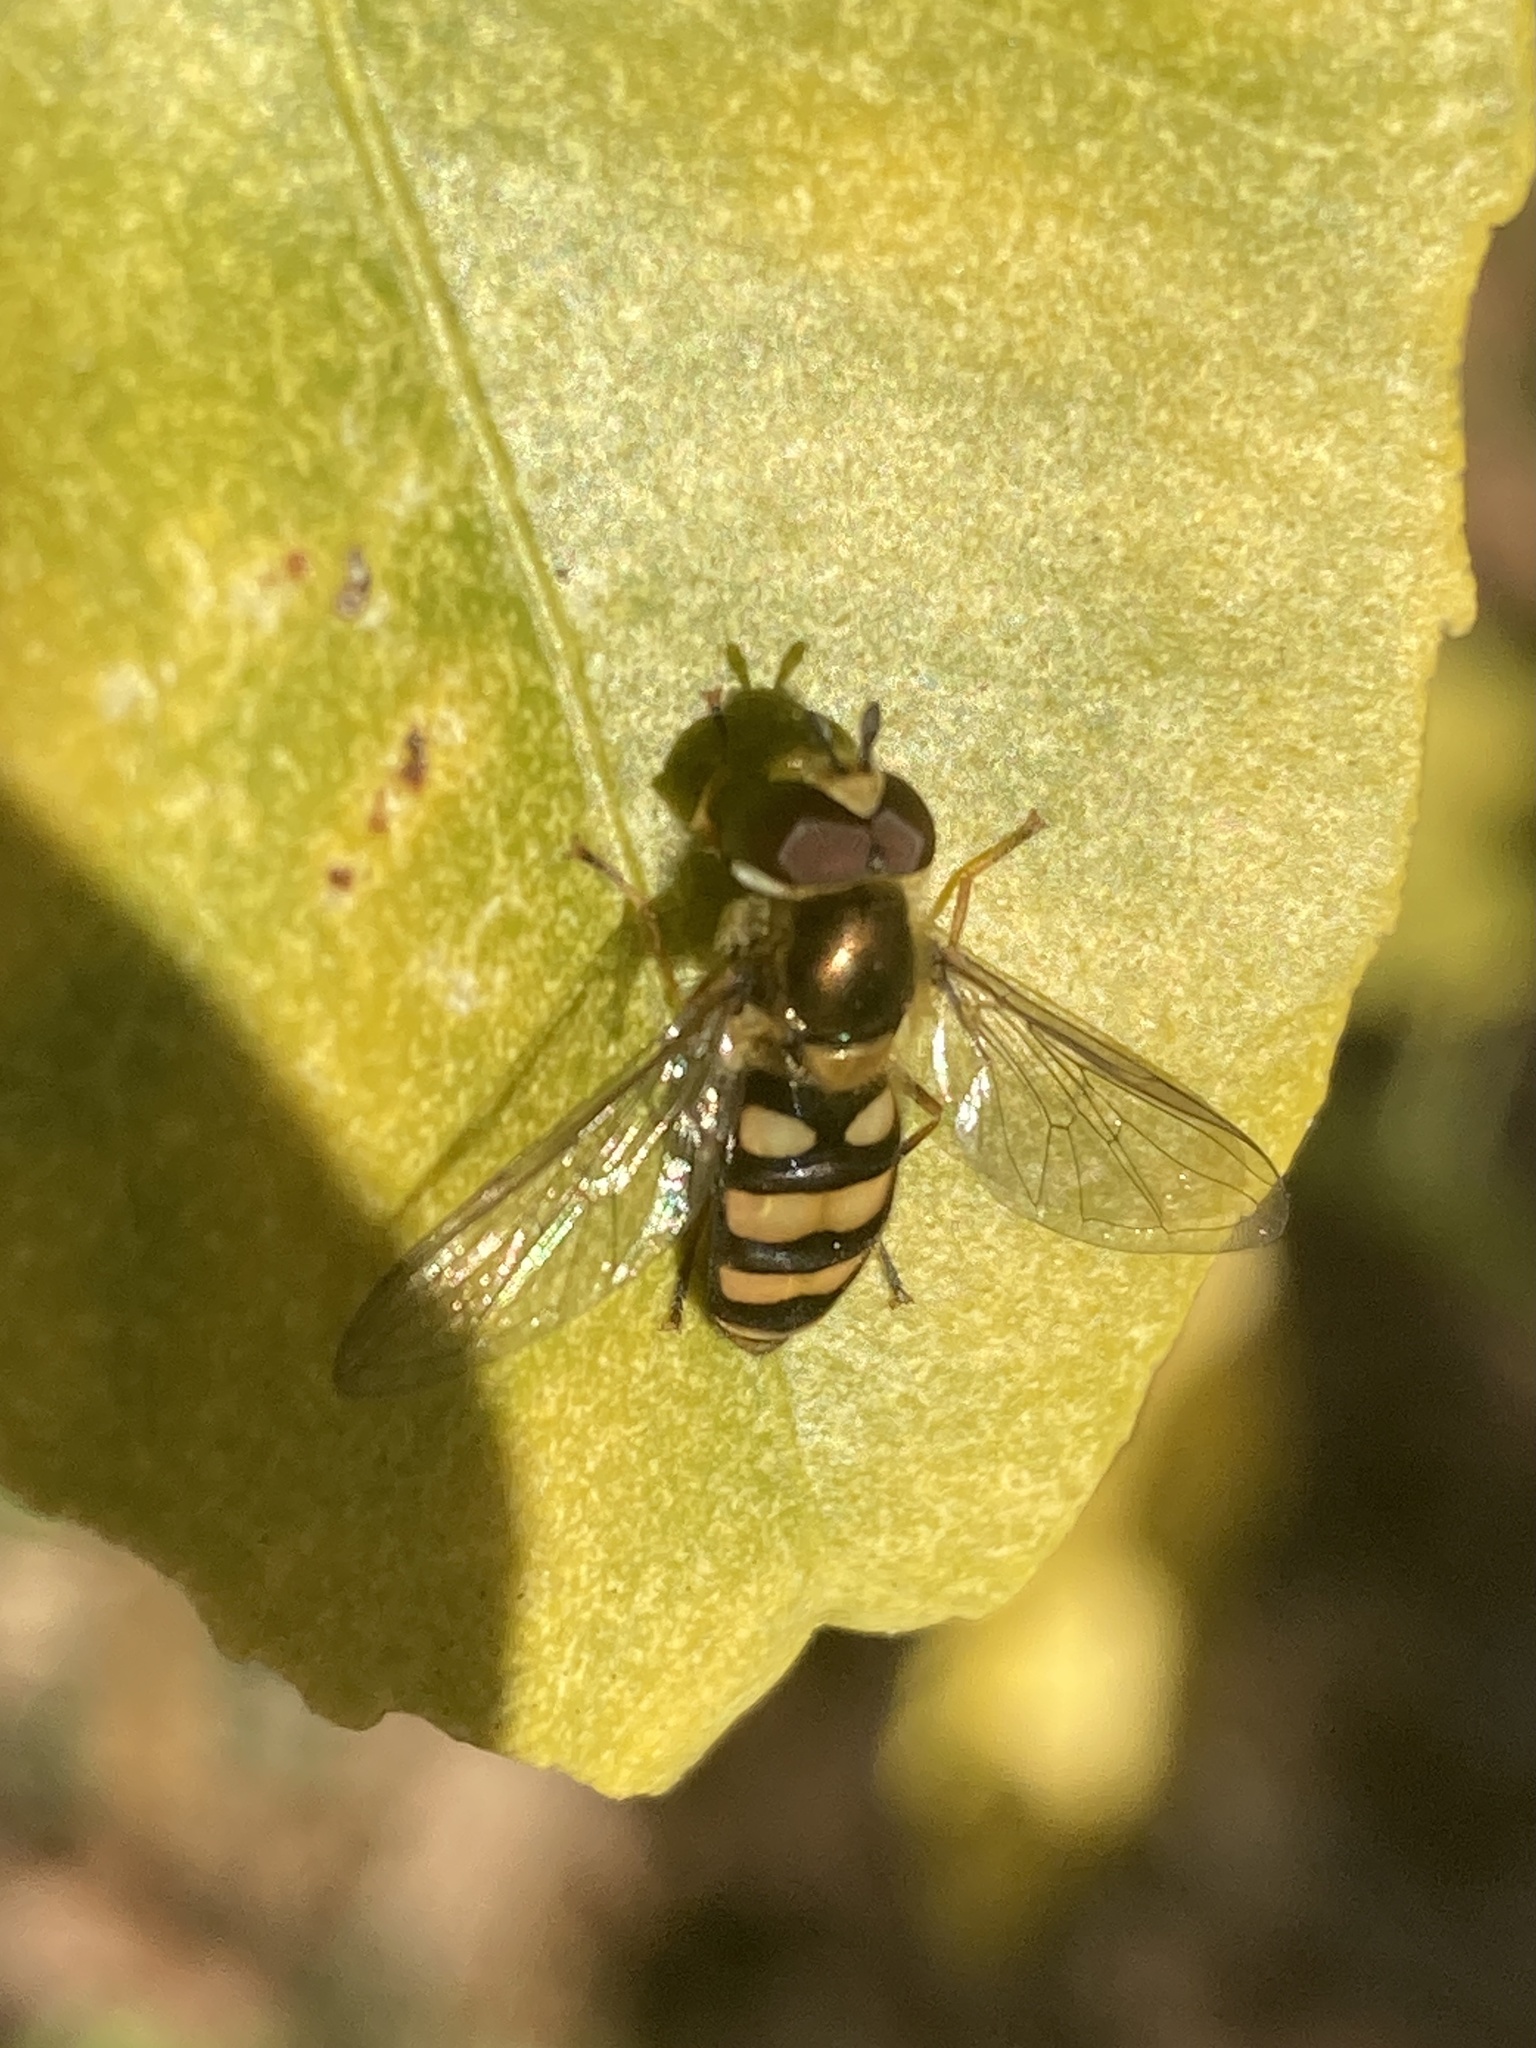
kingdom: Animalia
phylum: Arthropoda
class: Insecta
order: Diptera
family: Syrphidae
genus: Eupeodes
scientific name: Eupeodes
